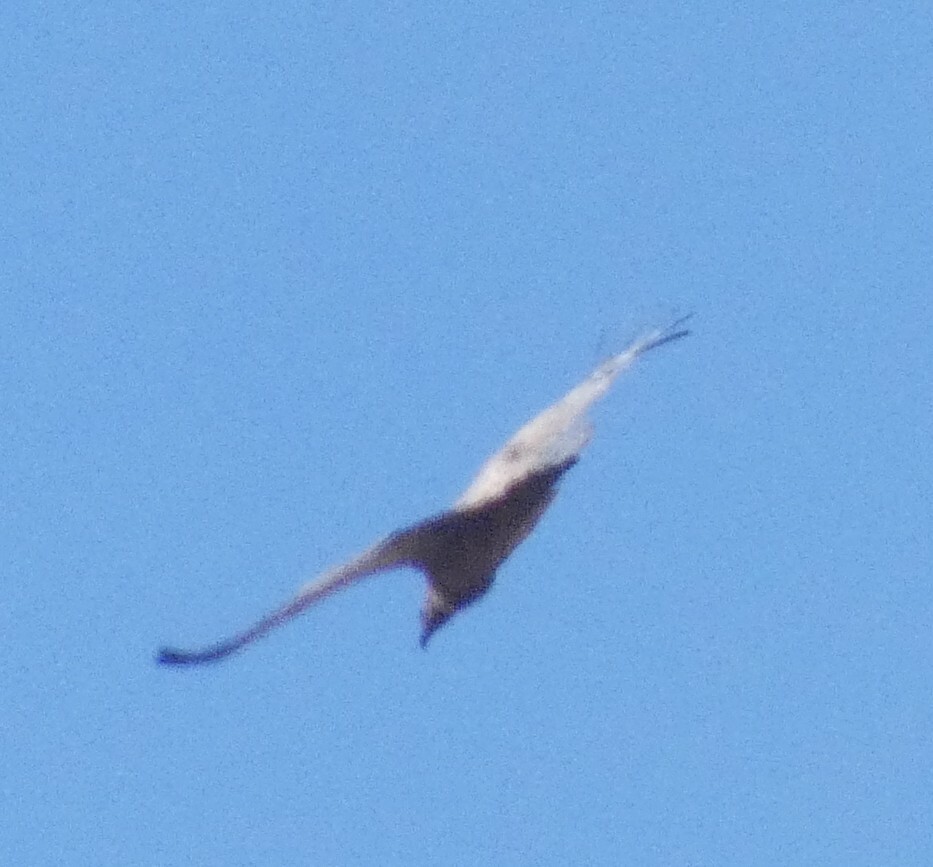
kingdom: Animalia
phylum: Chordata
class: Aves
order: Accipitriformes
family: Accipitridae
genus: Gyps
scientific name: Gyps africanus
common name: White-backed vulture
